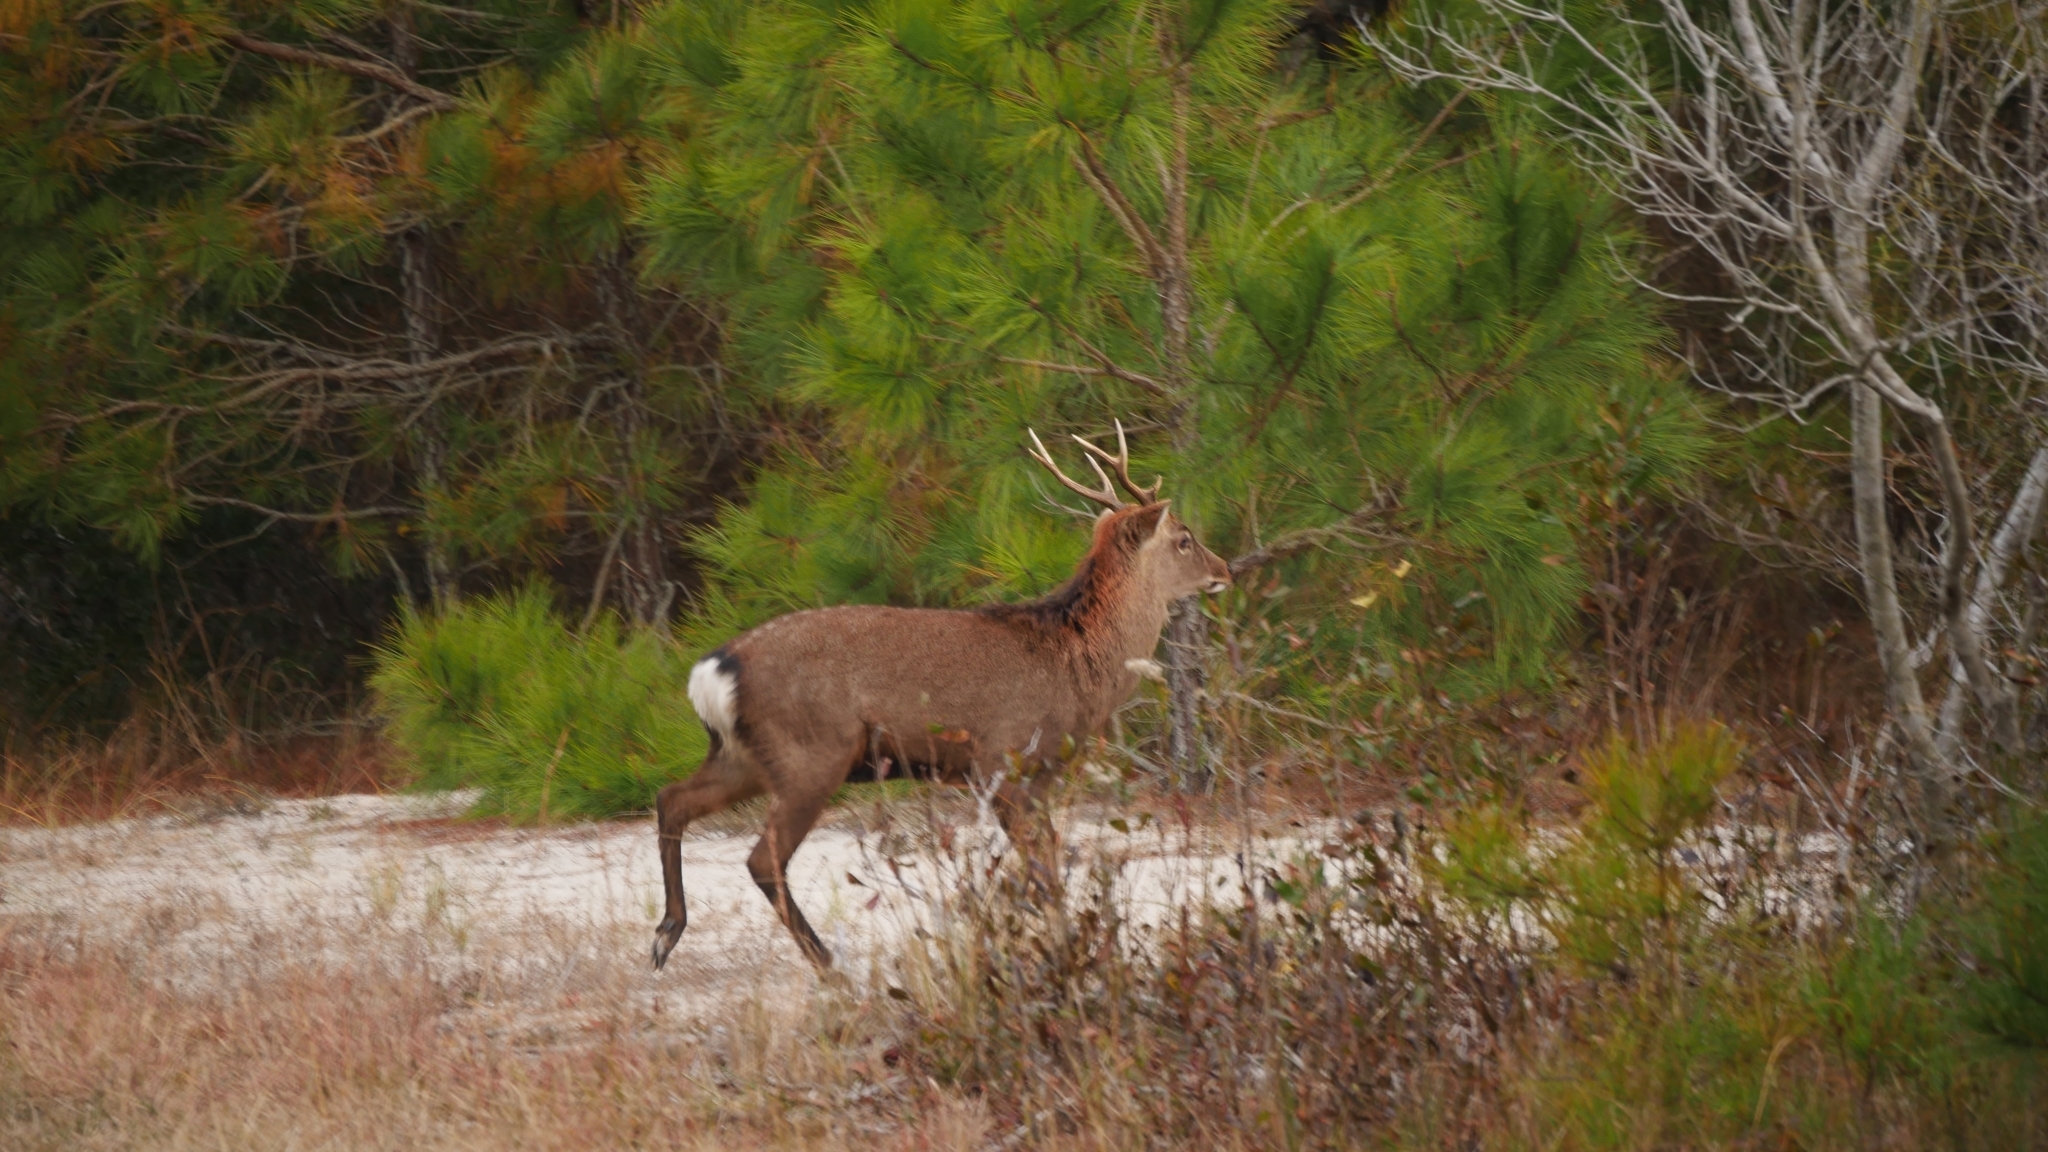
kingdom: Animalia
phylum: Chordata
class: Mammalia
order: Artiodactyla
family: Cervidae
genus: Cervus
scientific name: Cervus nippon
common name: Sika deer
